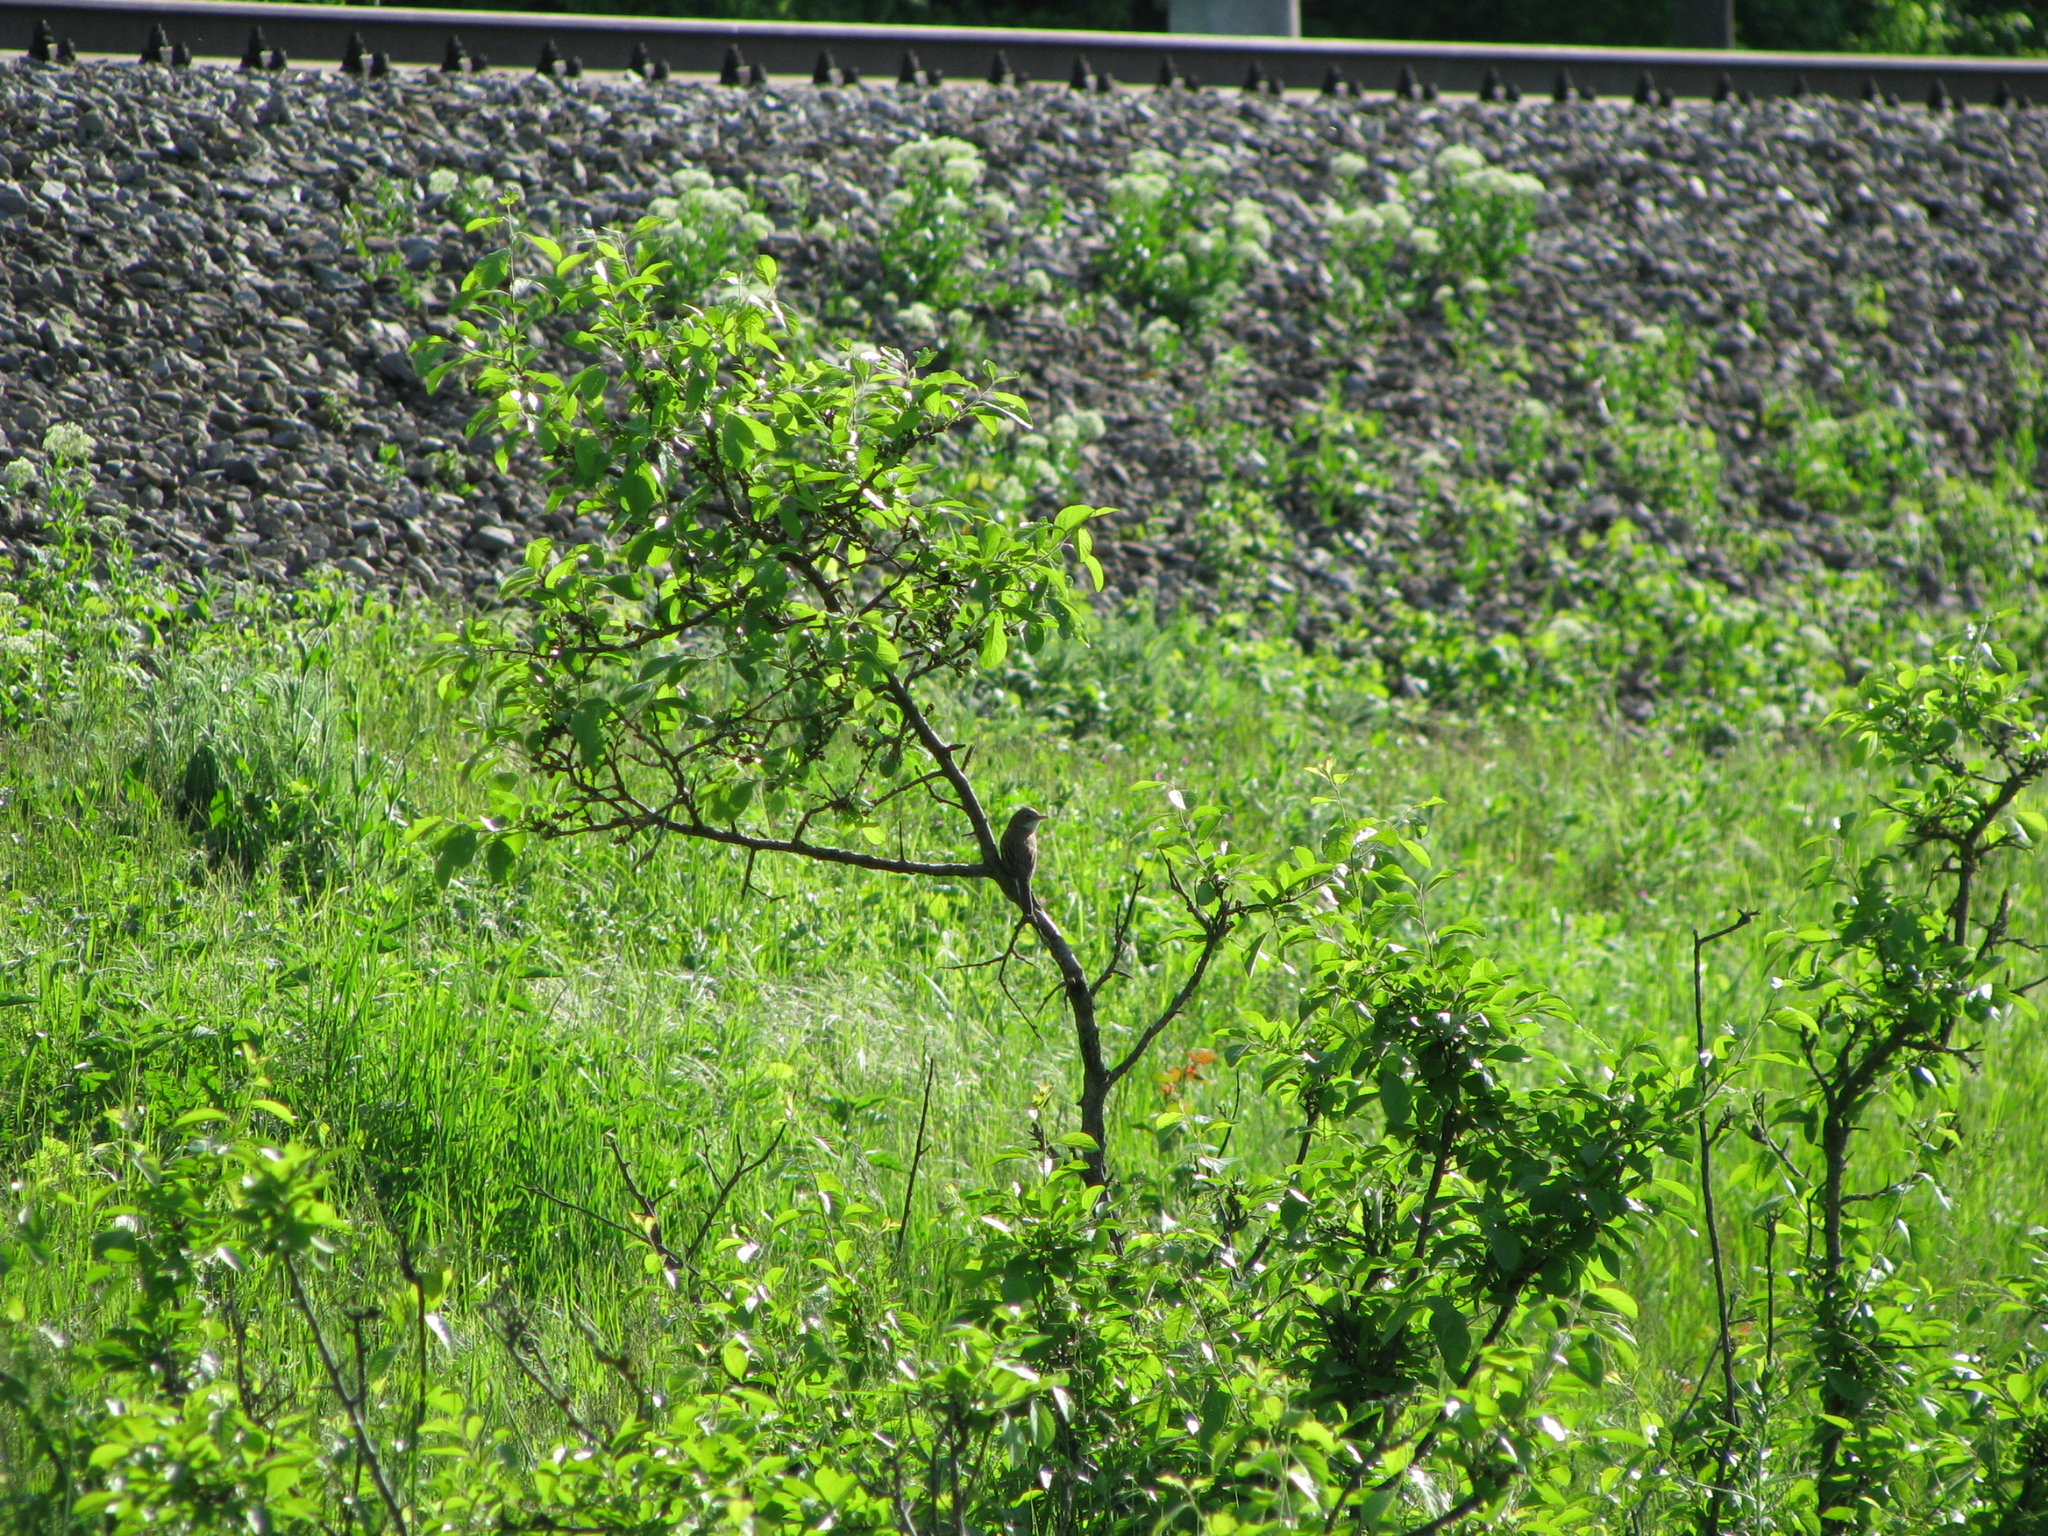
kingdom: Animalia
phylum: Chordata
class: Aves
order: Passeriformes
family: Sylviidae
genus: Sylvia
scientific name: Sylvia communis
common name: Common whitethroat
